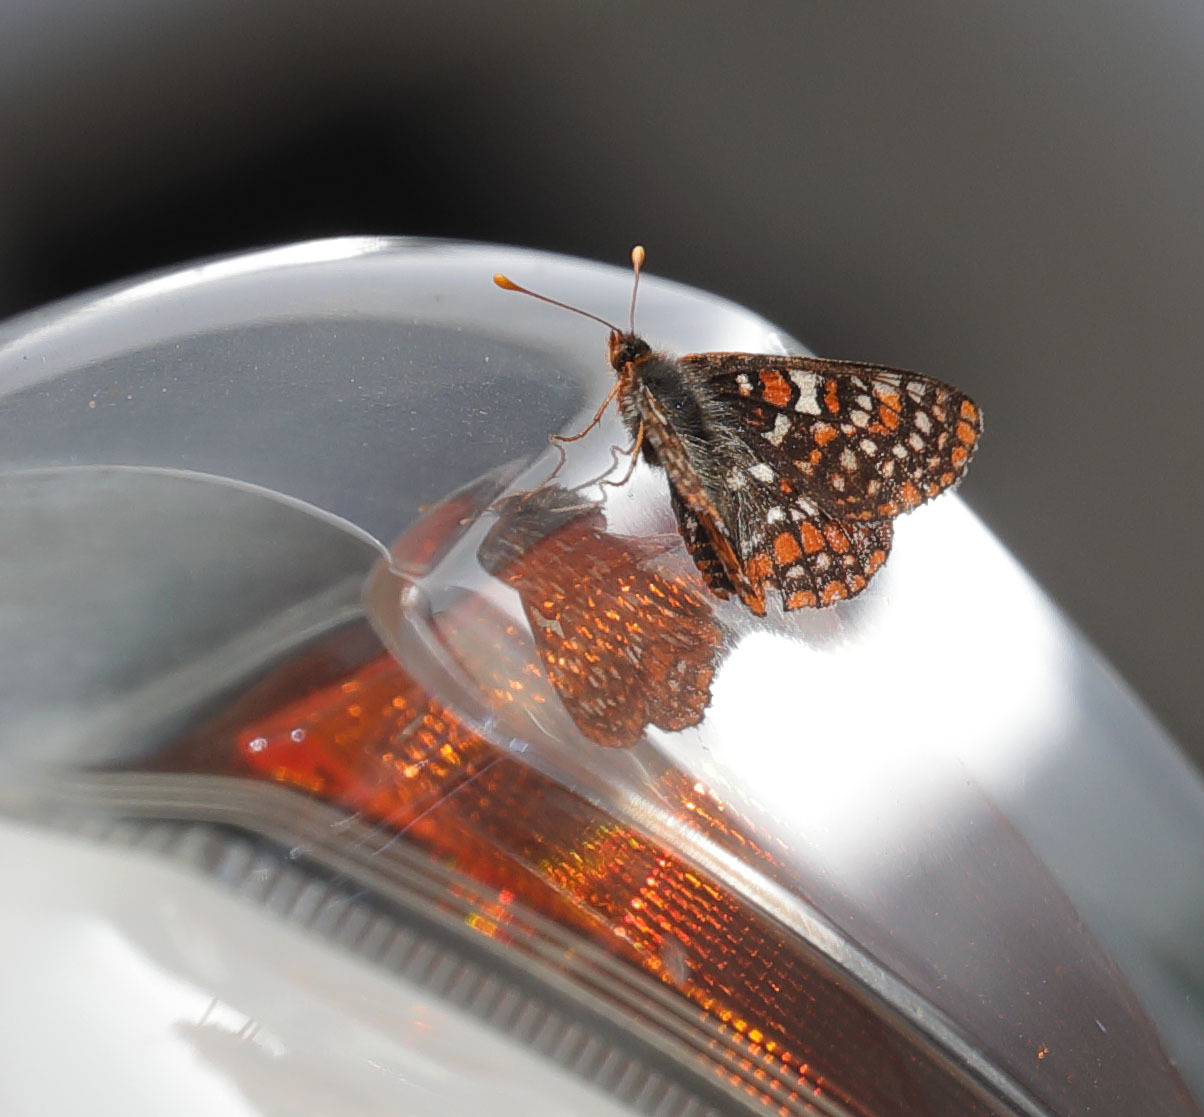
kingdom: Animalia
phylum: Arthropoda
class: Insecta
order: Lepidoptera
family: Nymphalidae
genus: Occidryas
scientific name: Occidryas editha
